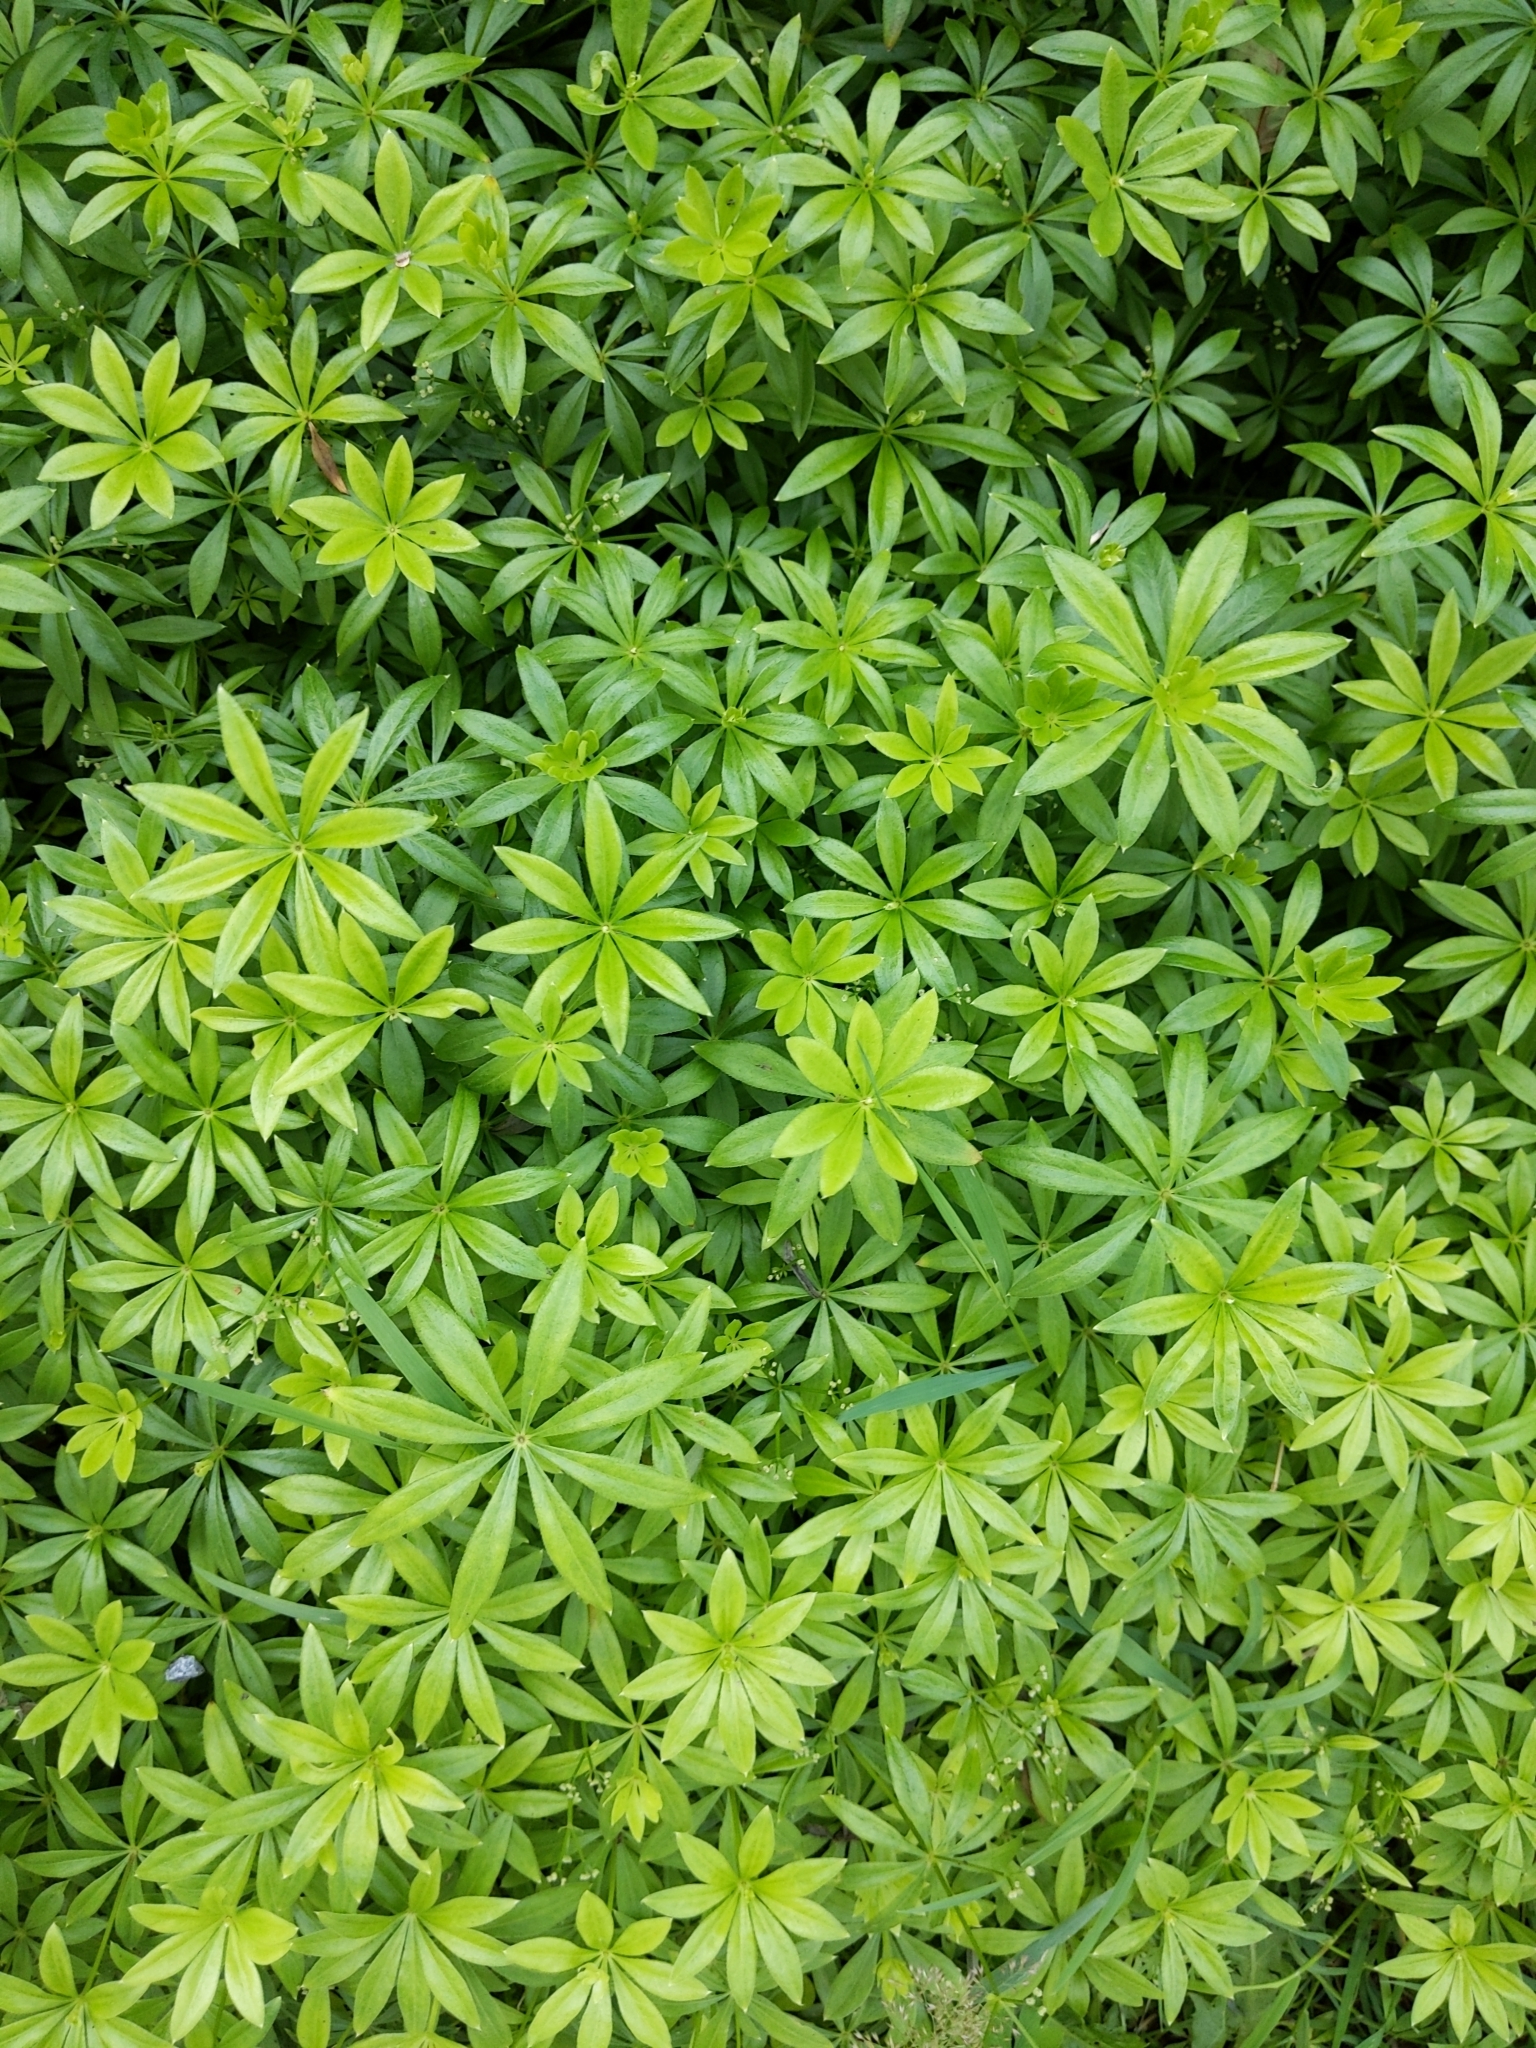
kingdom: Plantae
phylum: Tracheophyta
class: Magnoliopsida
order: Gentianales
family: Rubiaceae
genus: Galium
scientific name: Galium mollugo
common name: Hedge bedstraw
